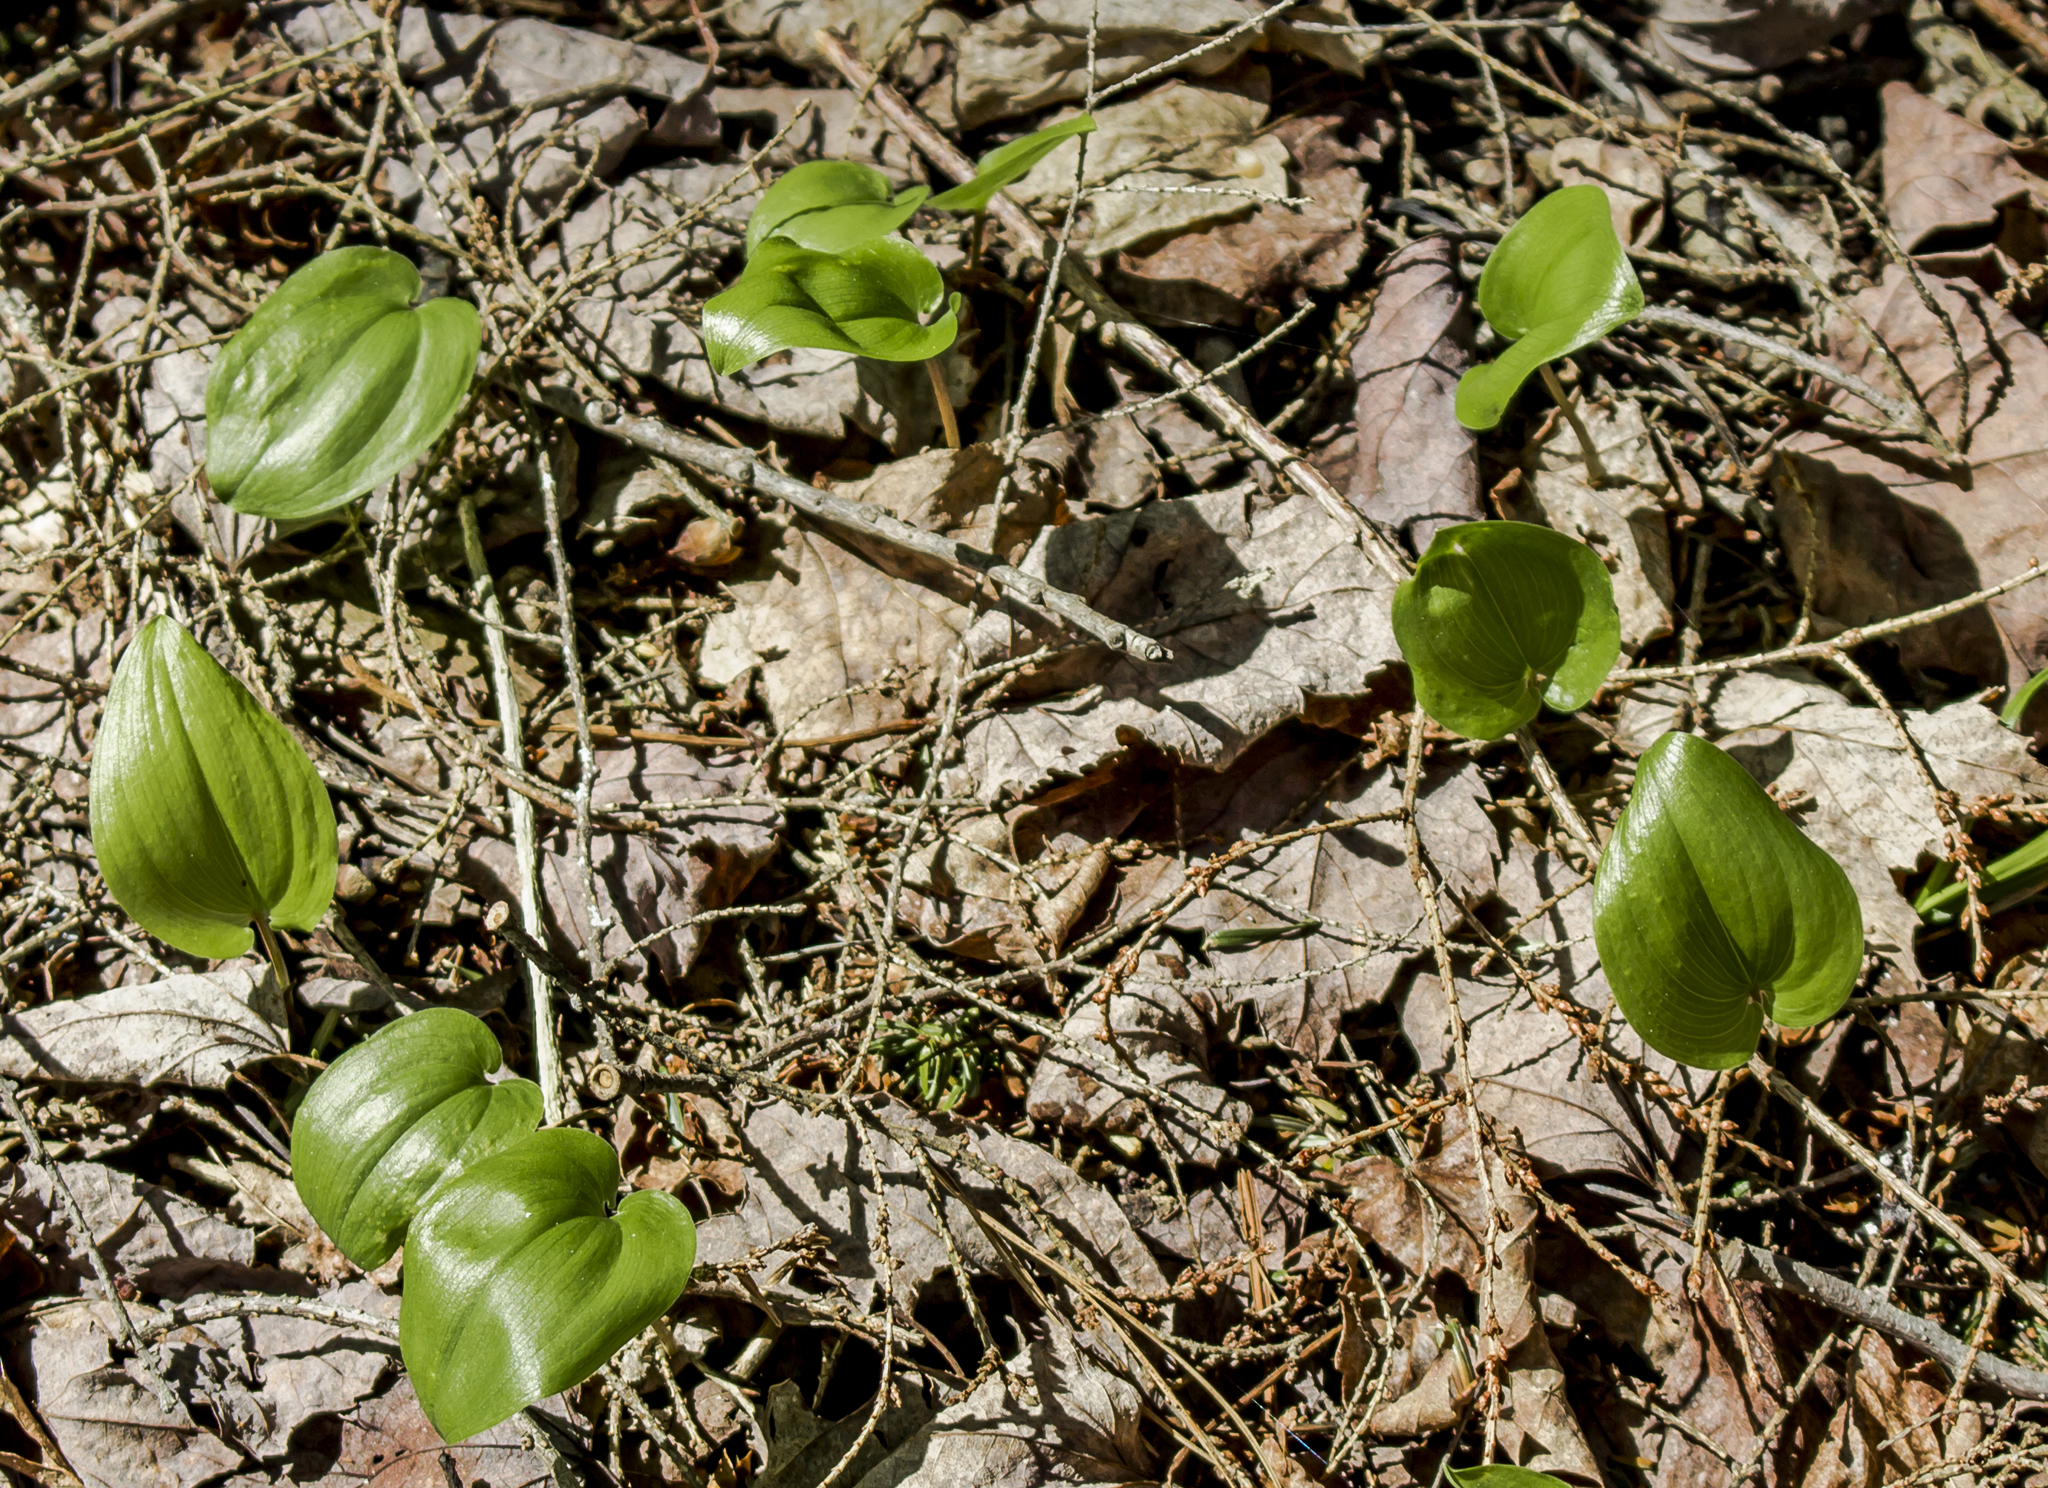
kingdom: Plantae
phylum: Tracheophyta
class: Liliopsida
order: Asparagales
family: Asparagaceae
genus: Maianthemum
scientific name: Maianthemum canadense
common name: False lily-of-the-valley
